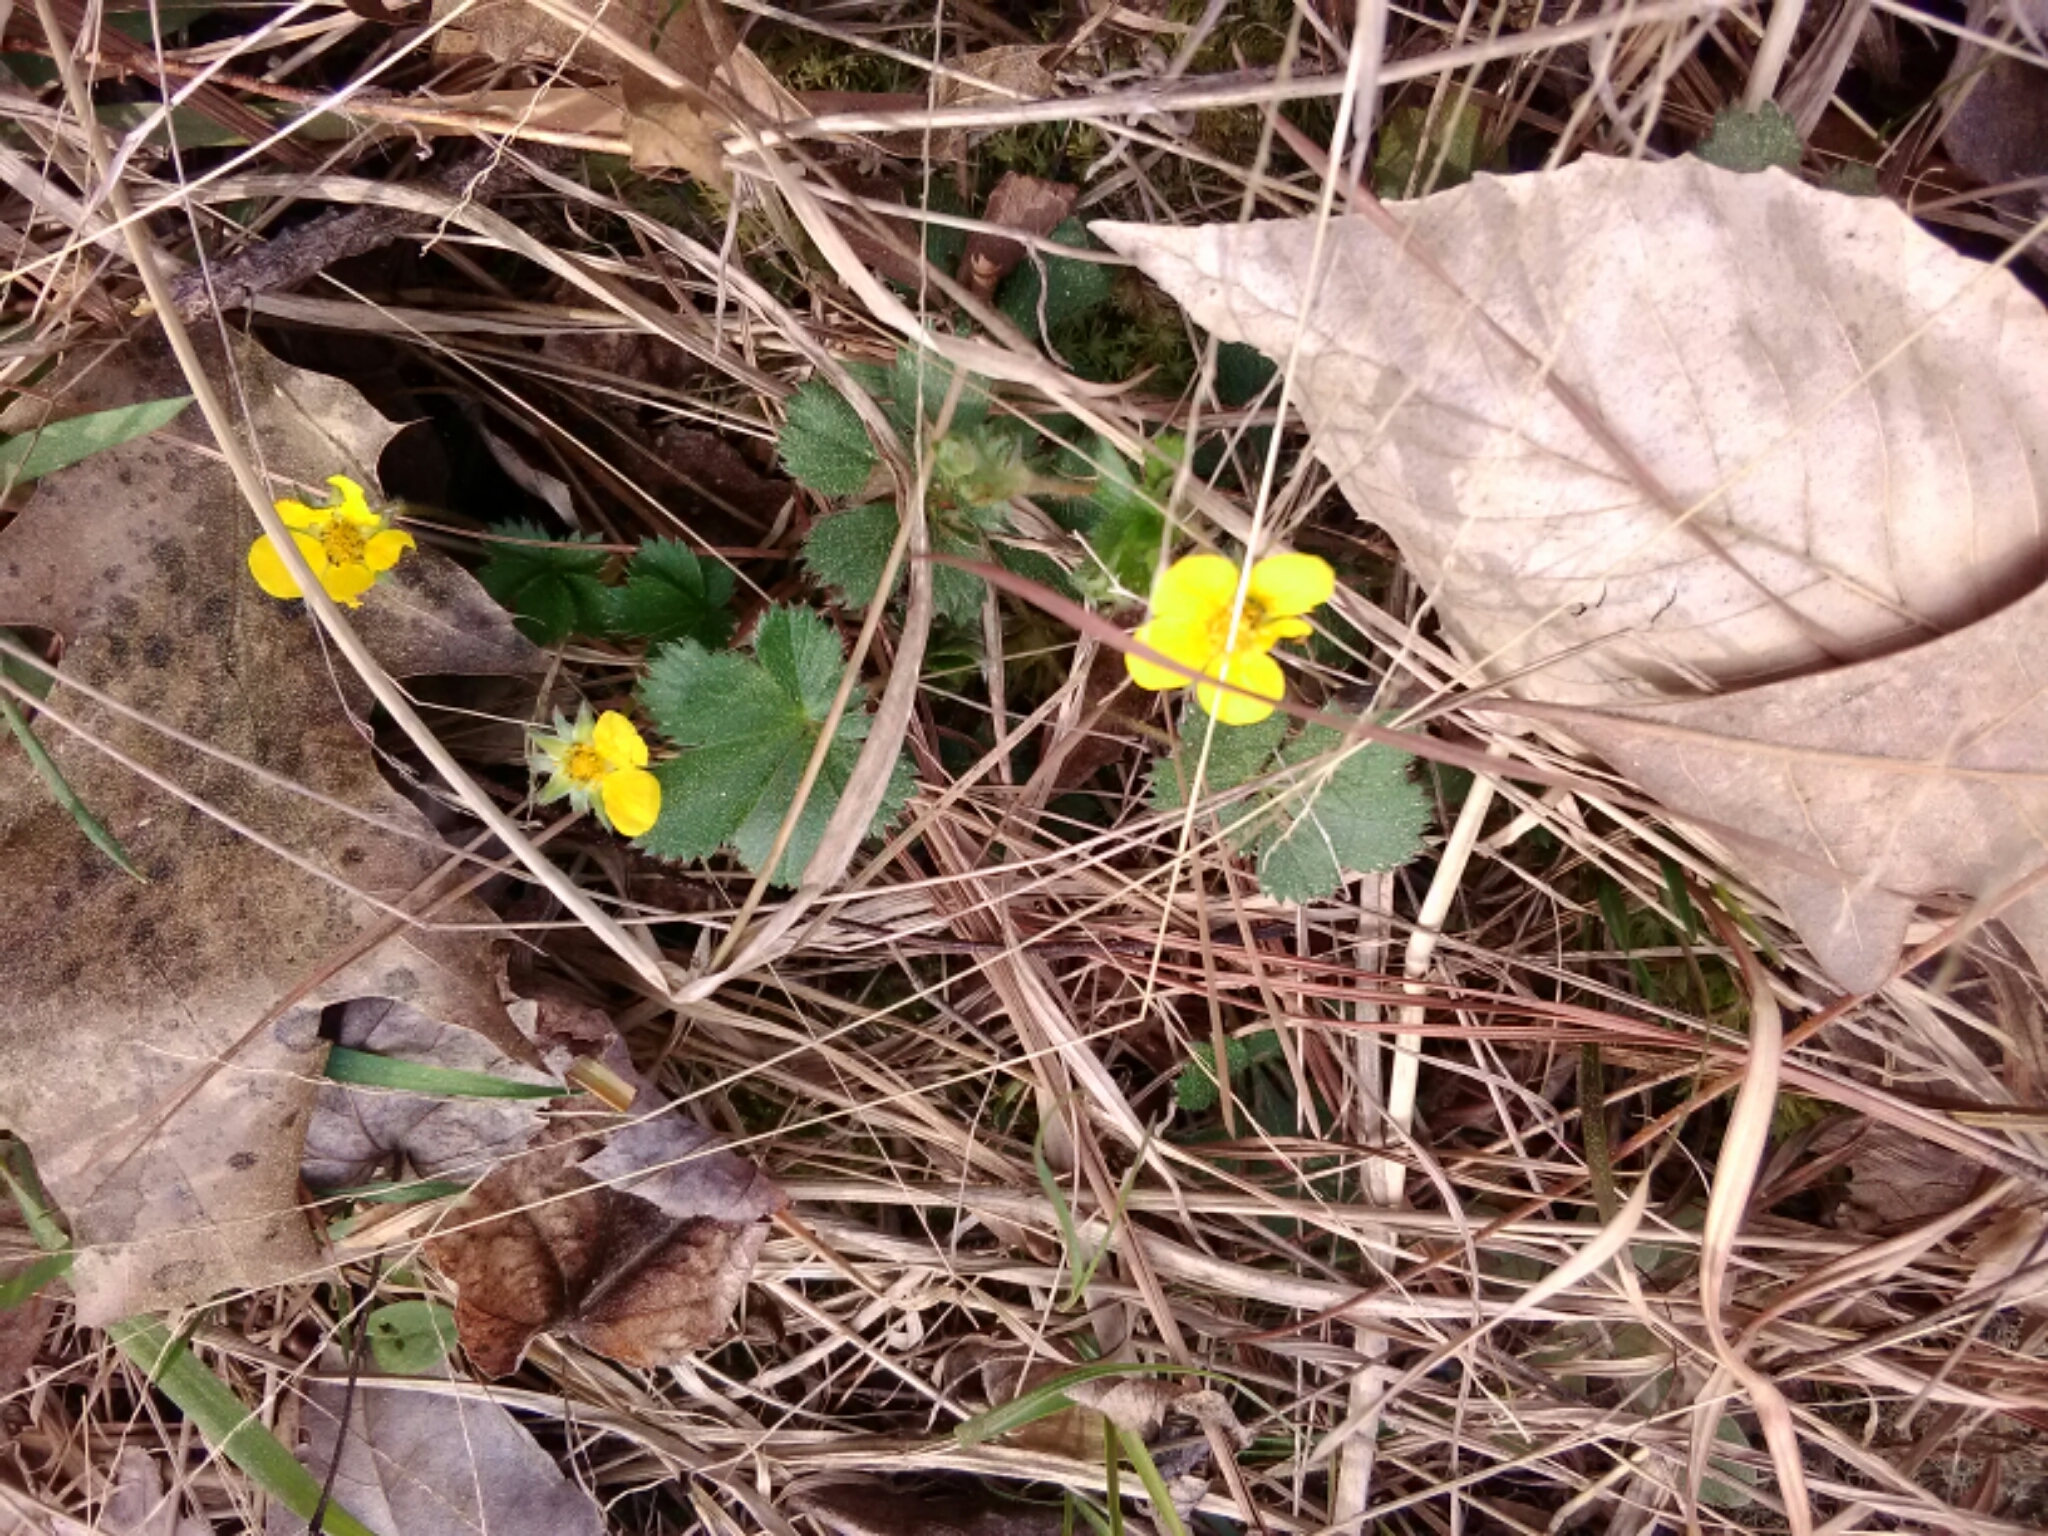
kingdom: Plantae
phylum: Tracheophyta
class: Magnoliopsida
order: Rosales
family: Rosaceae
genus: Potentilla
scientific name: Potentilla indica
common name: Yellow-flowered strawberry
